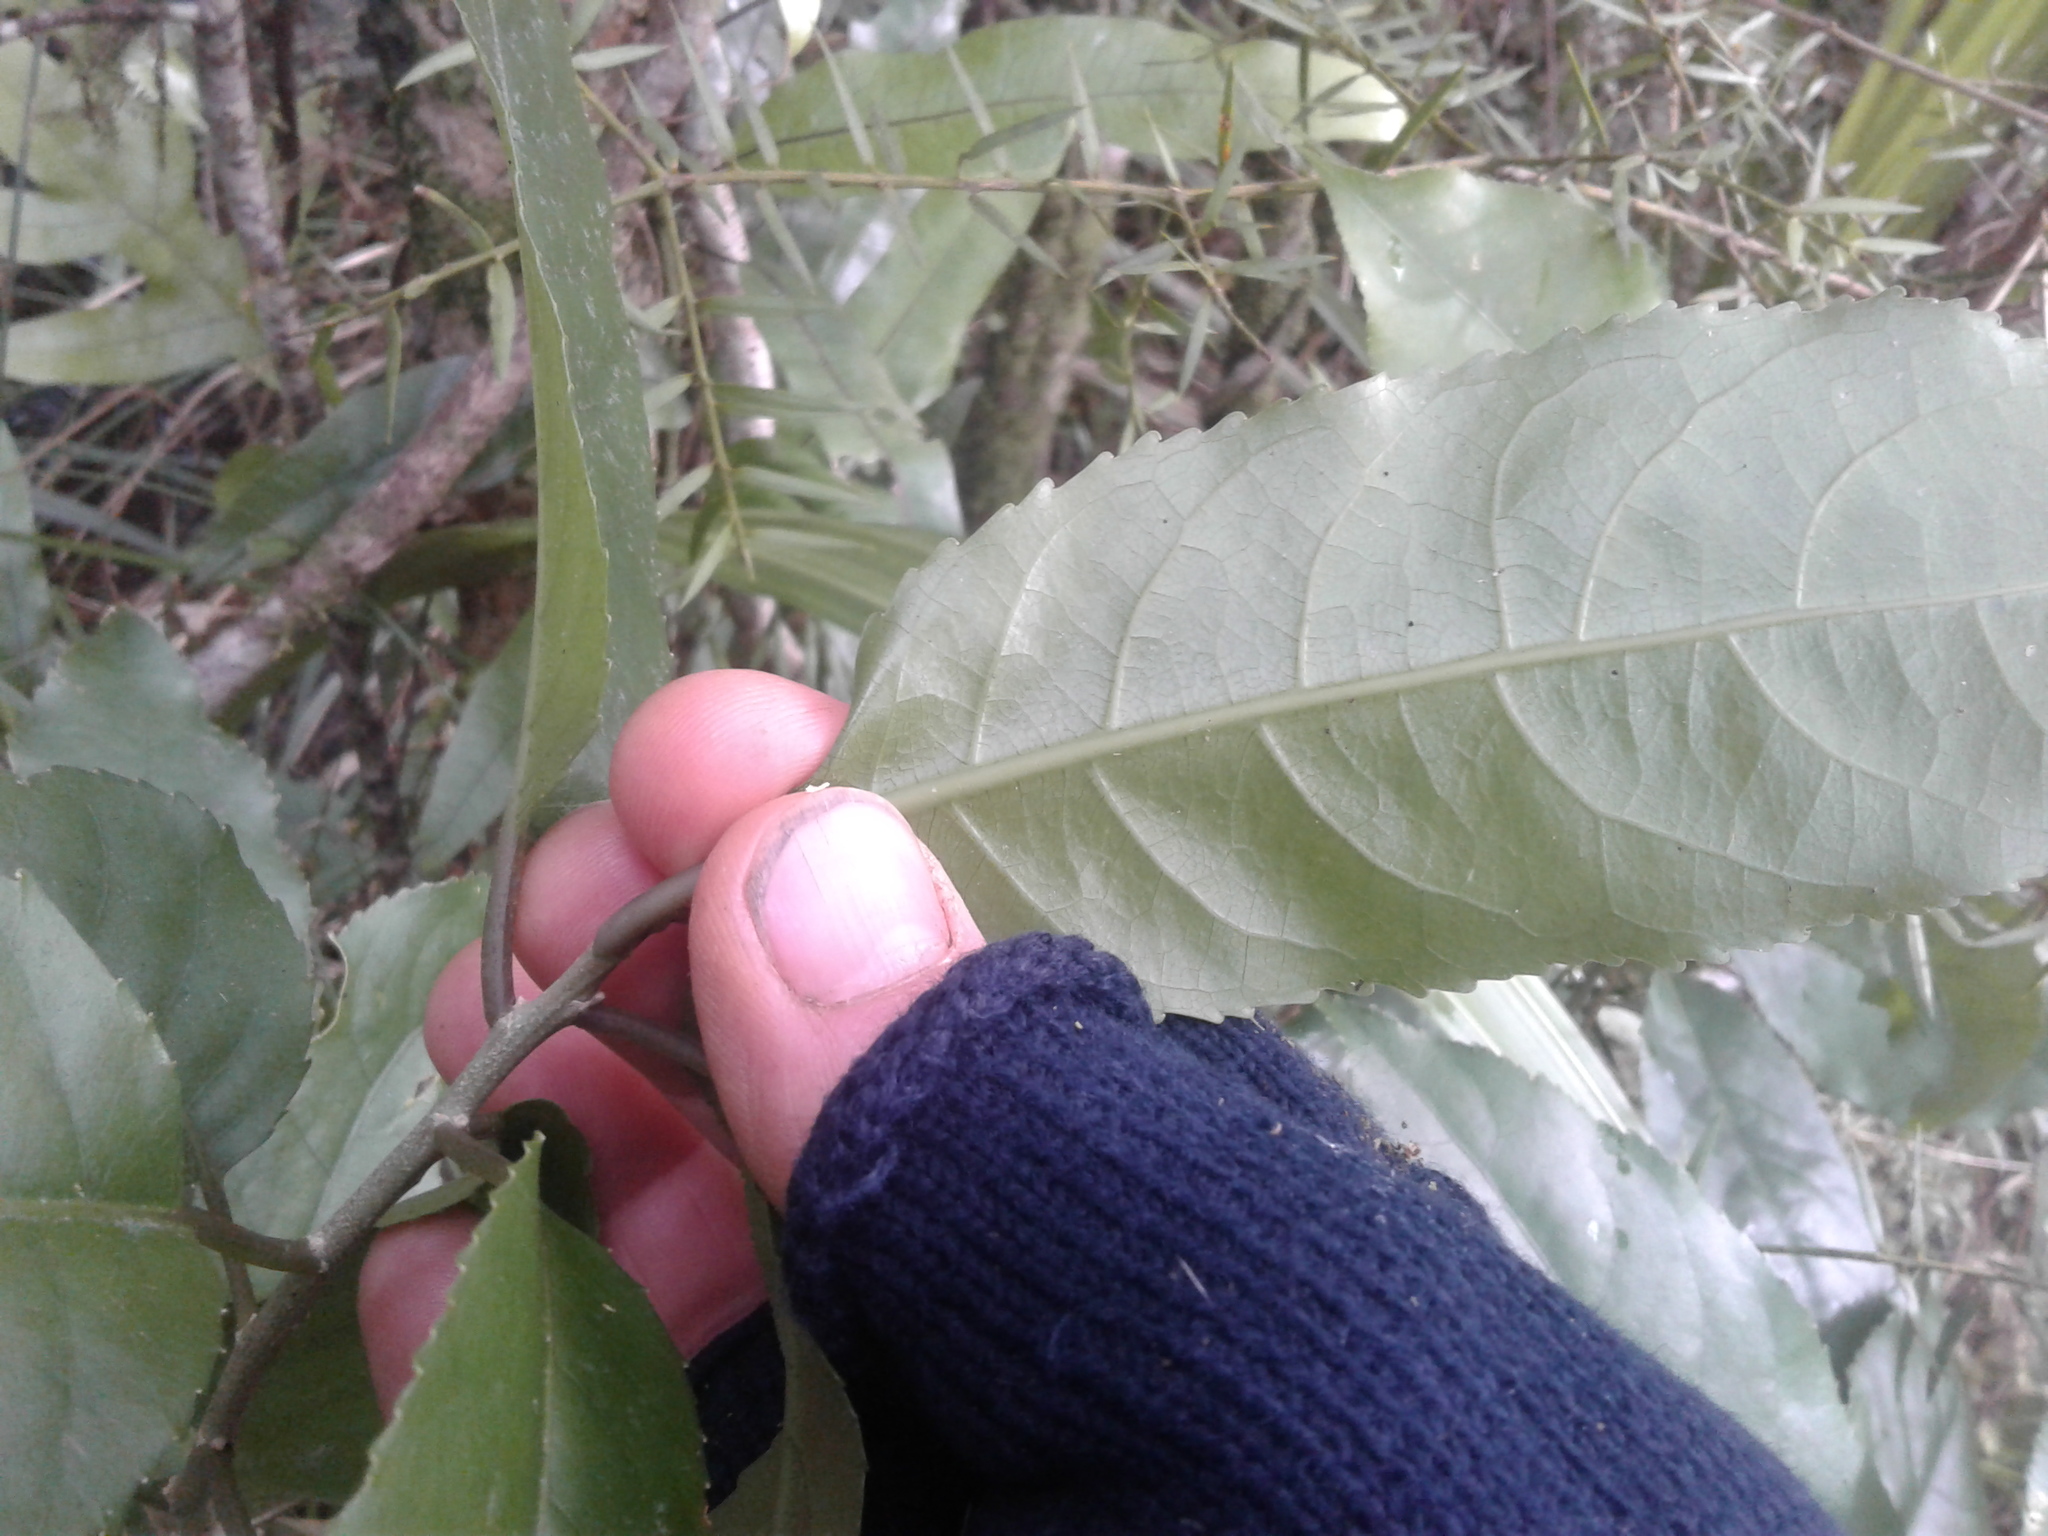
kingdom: Plantae
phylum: Tracheophyta
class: Magnoliopsida
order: Malpighiales
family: Violaceae
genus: Melicytus
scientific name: Melicytus ramiflorus
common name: Mahoe
